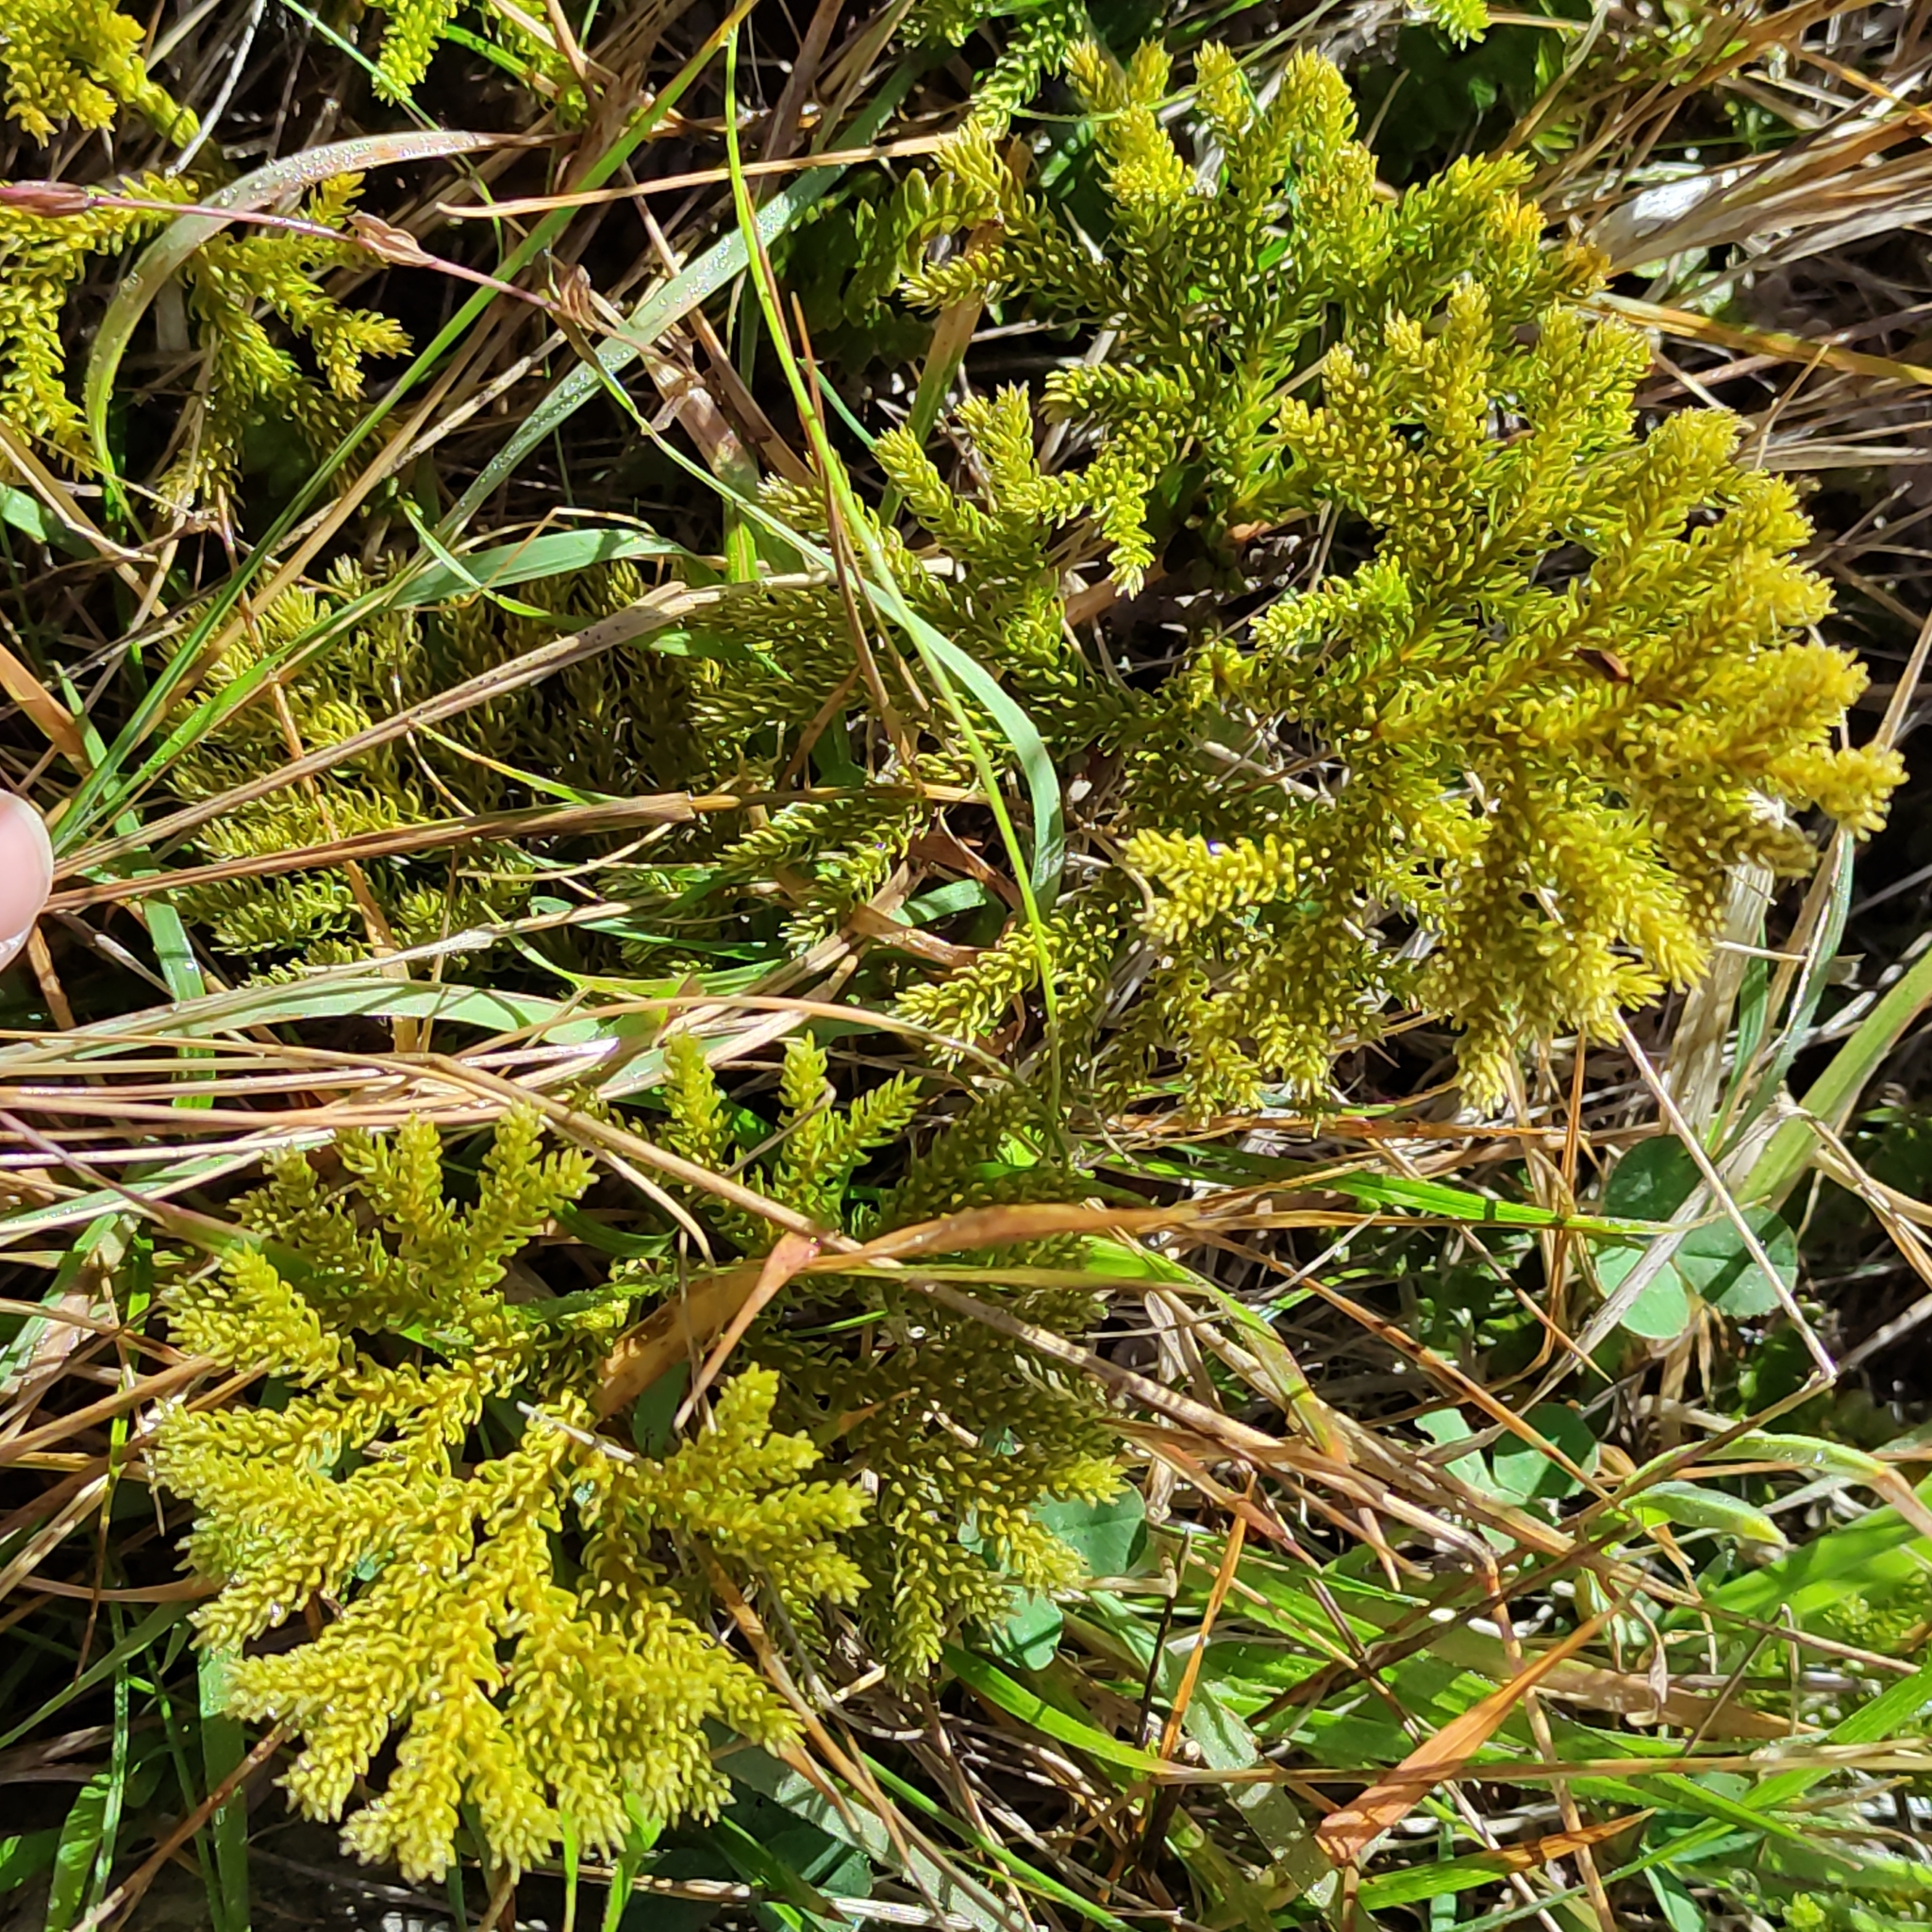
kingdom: Plantae
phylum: Tracheophyta
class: Lycopodiopsida
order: Lycopodiales
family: Lycopodiaceae
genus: Austrolycopodium
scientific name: Austrolycopodium fastigiatum
